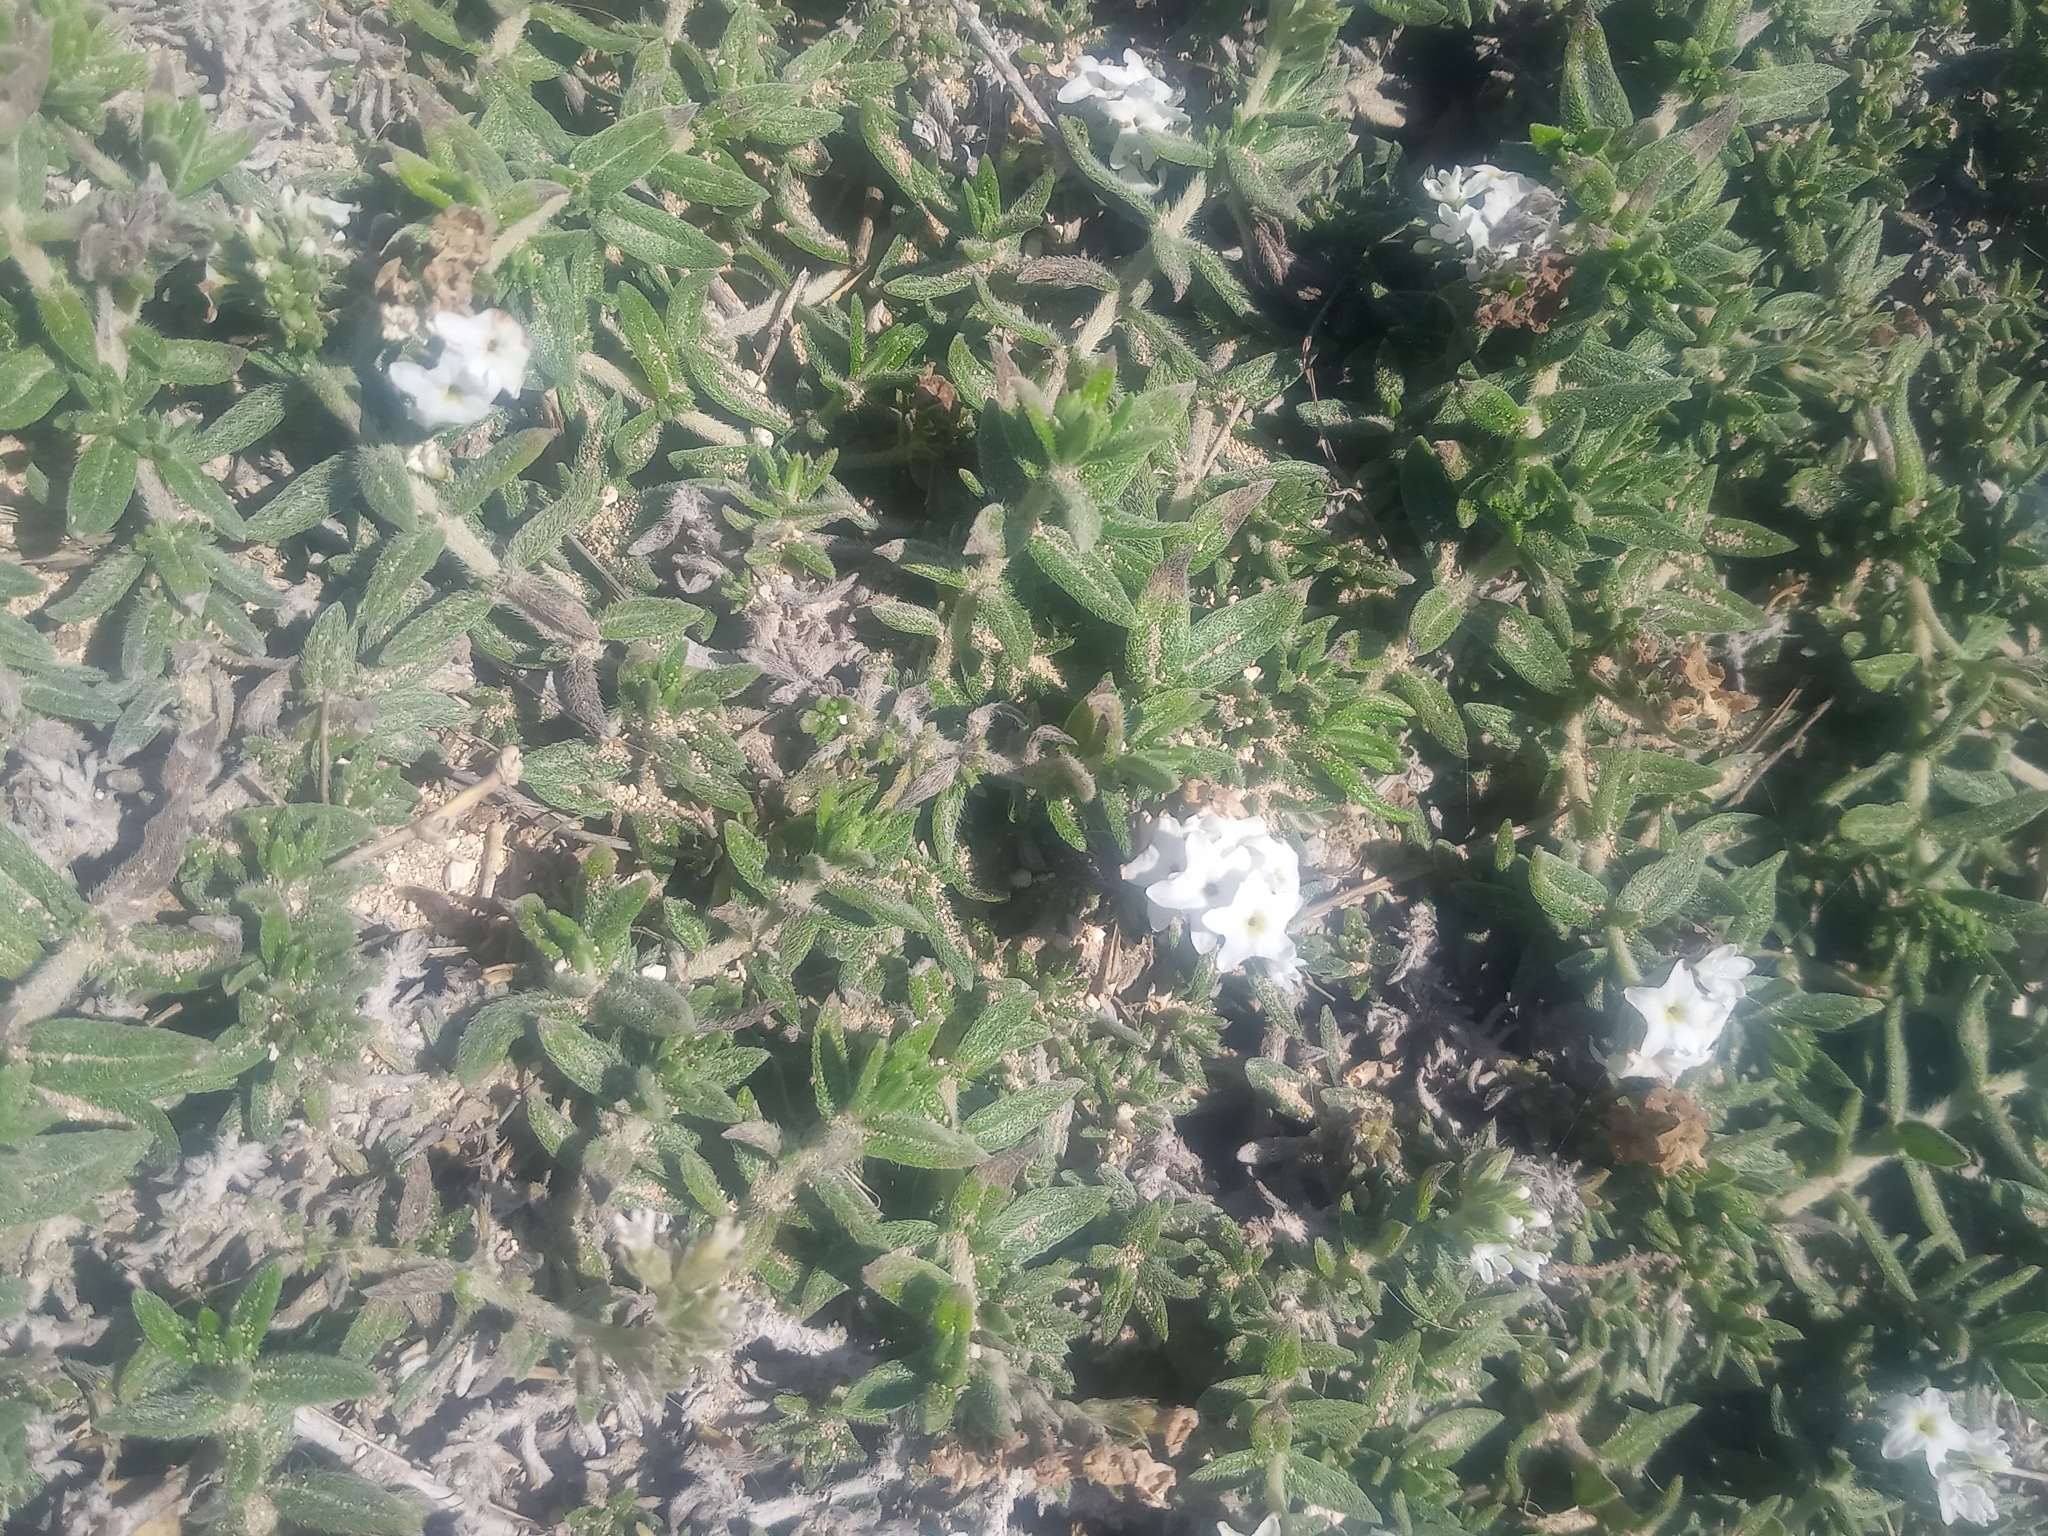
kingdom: Plantae
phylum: Tracheophyta
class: Magnoliopsida
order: Boraginales
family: Heliotropiaceae
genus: Euploca
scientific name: Euploca humilis
